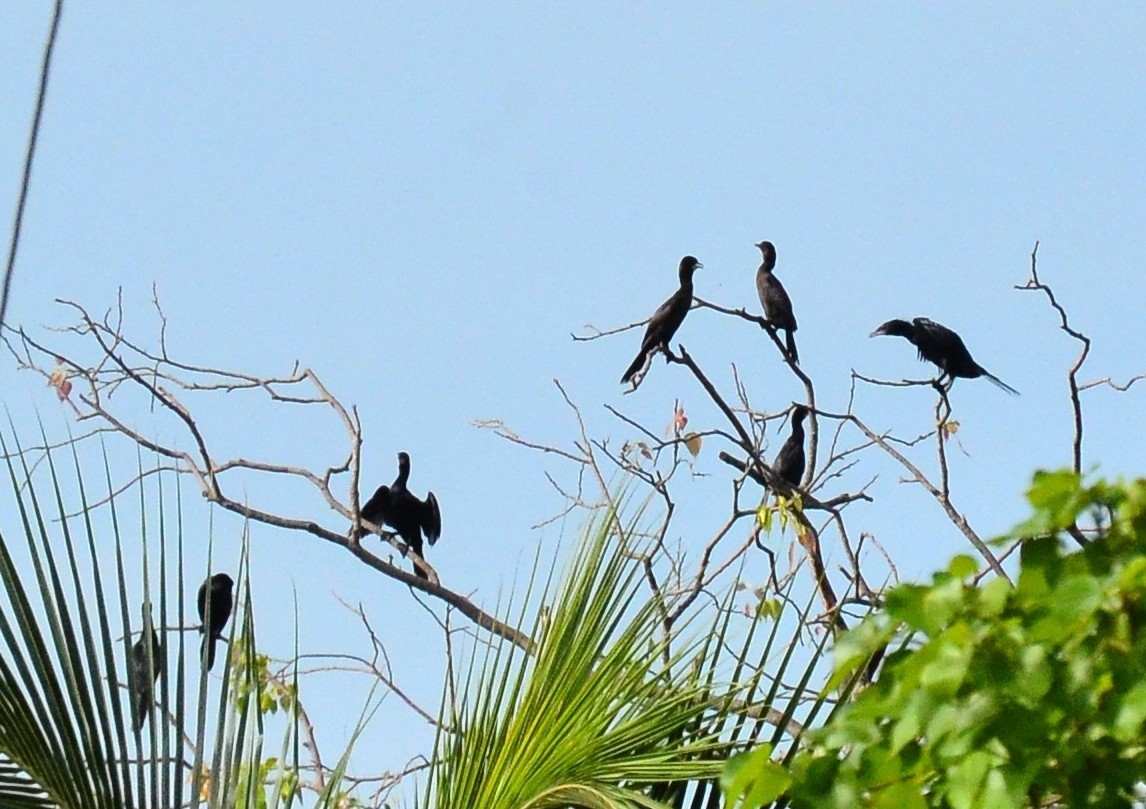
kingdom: Animalia
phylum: Chordata
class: Aves
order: Suliformes
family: Phalacrocoracidae
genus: Microcarbo
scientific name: Microcarbo niger
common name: Little cormorant
